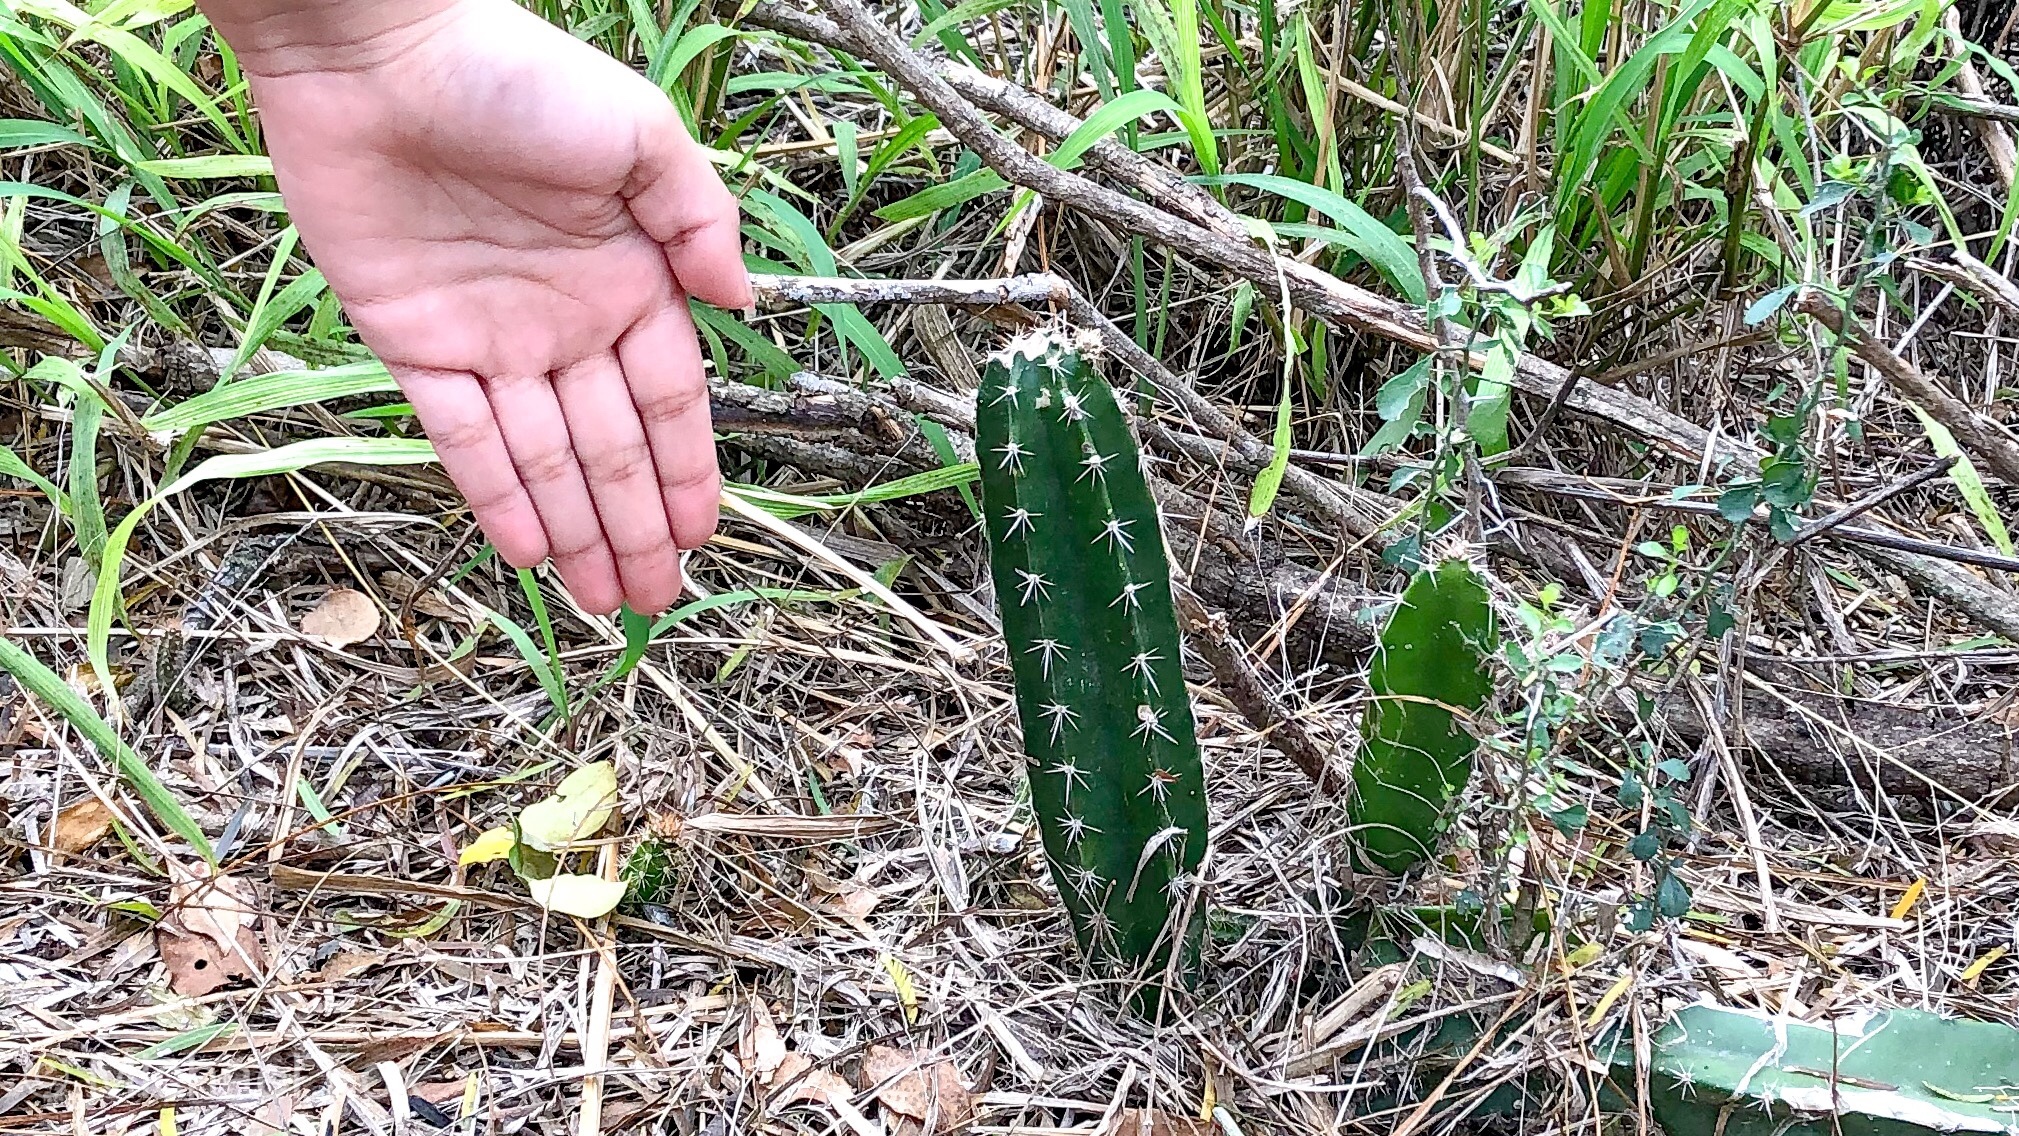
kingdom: Plantae
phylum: Tracheophyta
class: Magnoliopsida
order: Caryophyllales
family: Cactaceae
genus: Cereus
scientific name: Cereus hexagonus
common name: Lady of the night cactus
